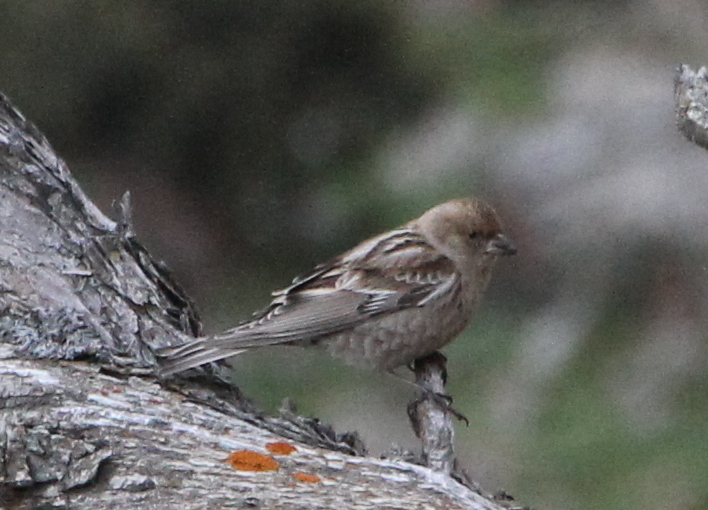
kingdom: Animalia
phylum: Chordata
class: Aves
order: Passeriformes
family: Fringillidae
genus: Leucosticte
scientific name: Leucosticte nemoricola
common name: Plain mountain finch
